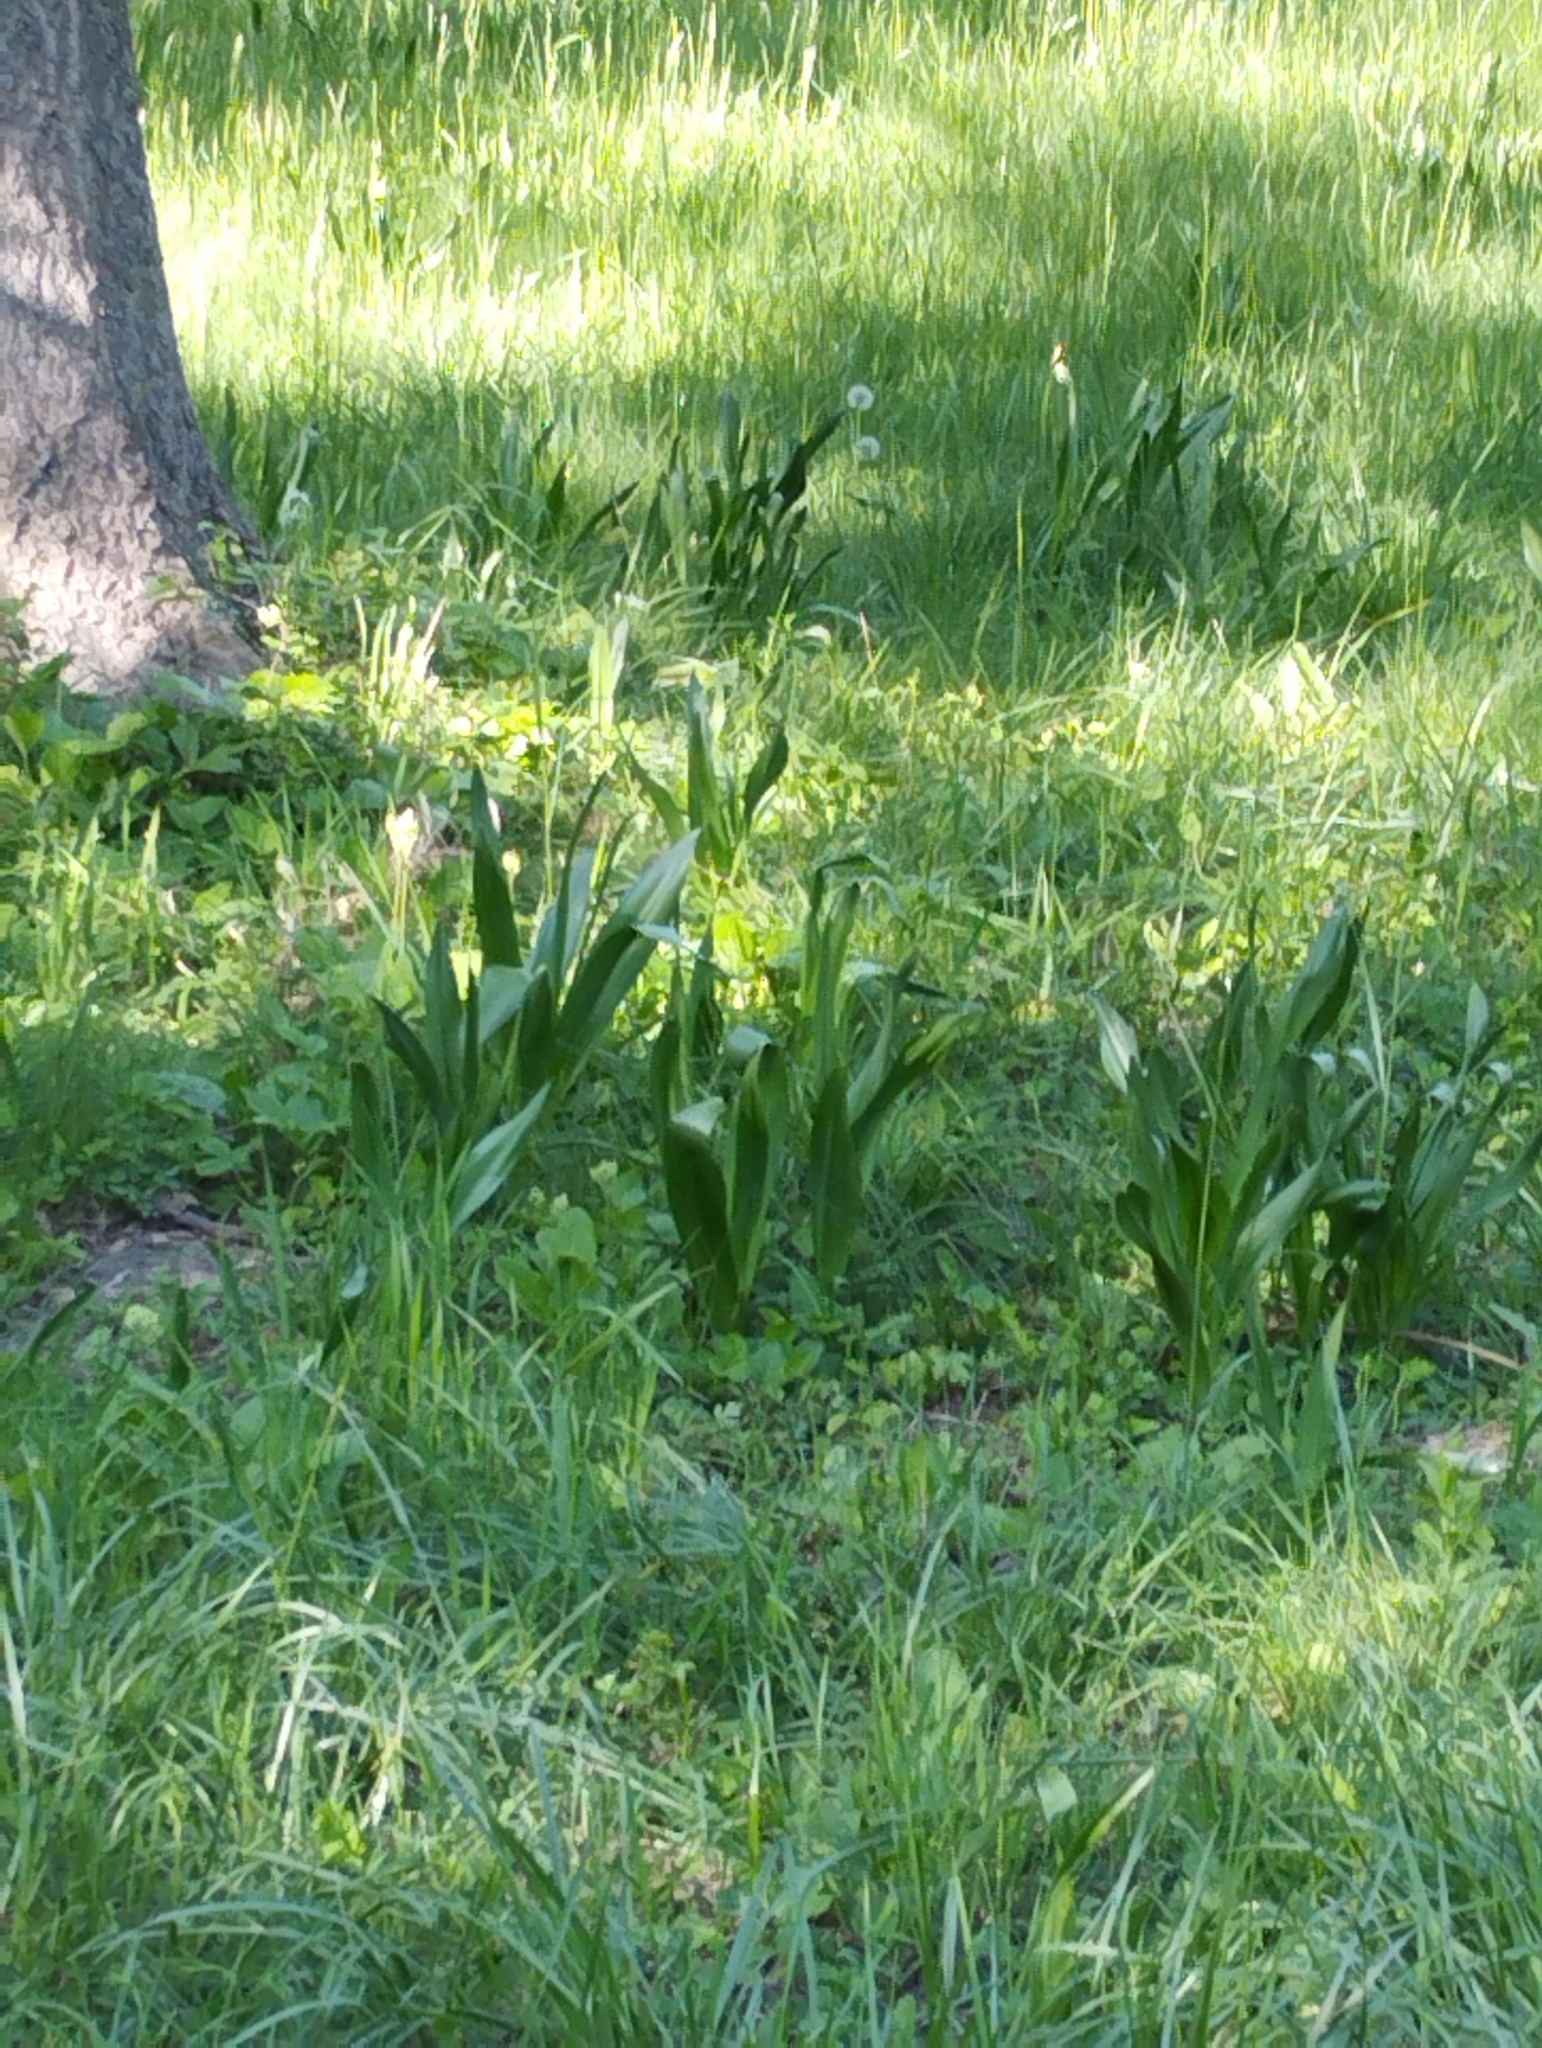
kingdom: Plantae
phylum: Tracheophyta
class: Liliopsida
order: Liliales
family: Colchicaceae
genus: Colchicum
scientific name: Colchicum autumnale
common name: Autumn crocus
